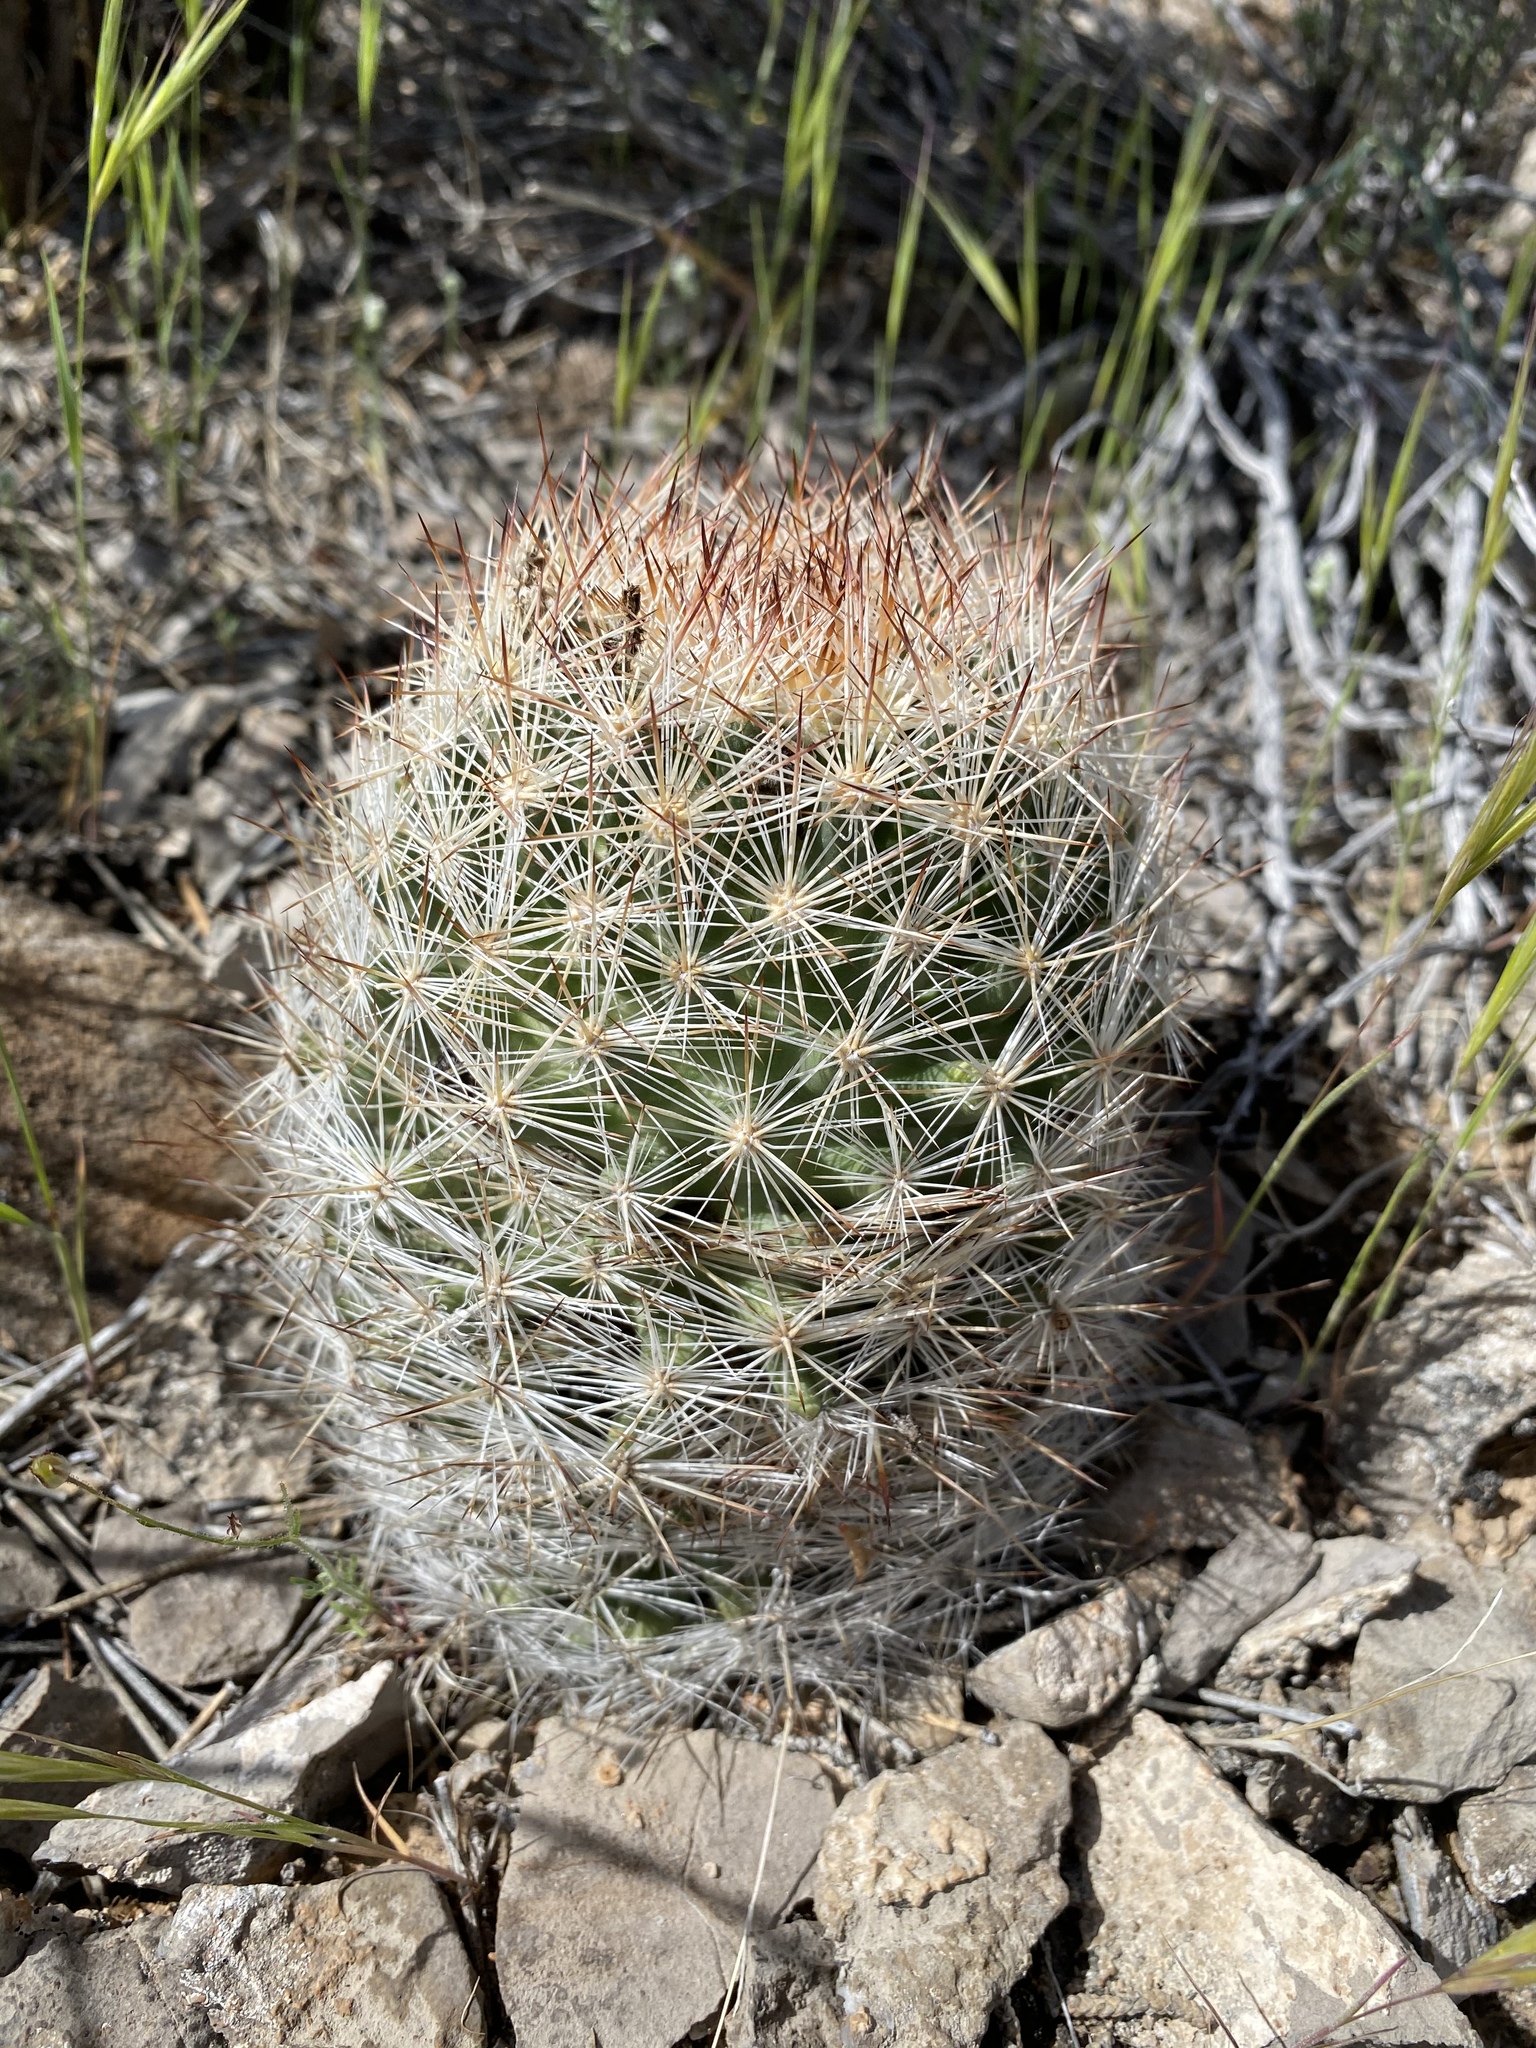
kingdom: Plantae
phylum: Tracheophyta
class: Magnoliopsida
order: Caryophyllales
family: Cactaceae
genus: Pelecyphora
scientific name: Pelecyphora dasyacantha
